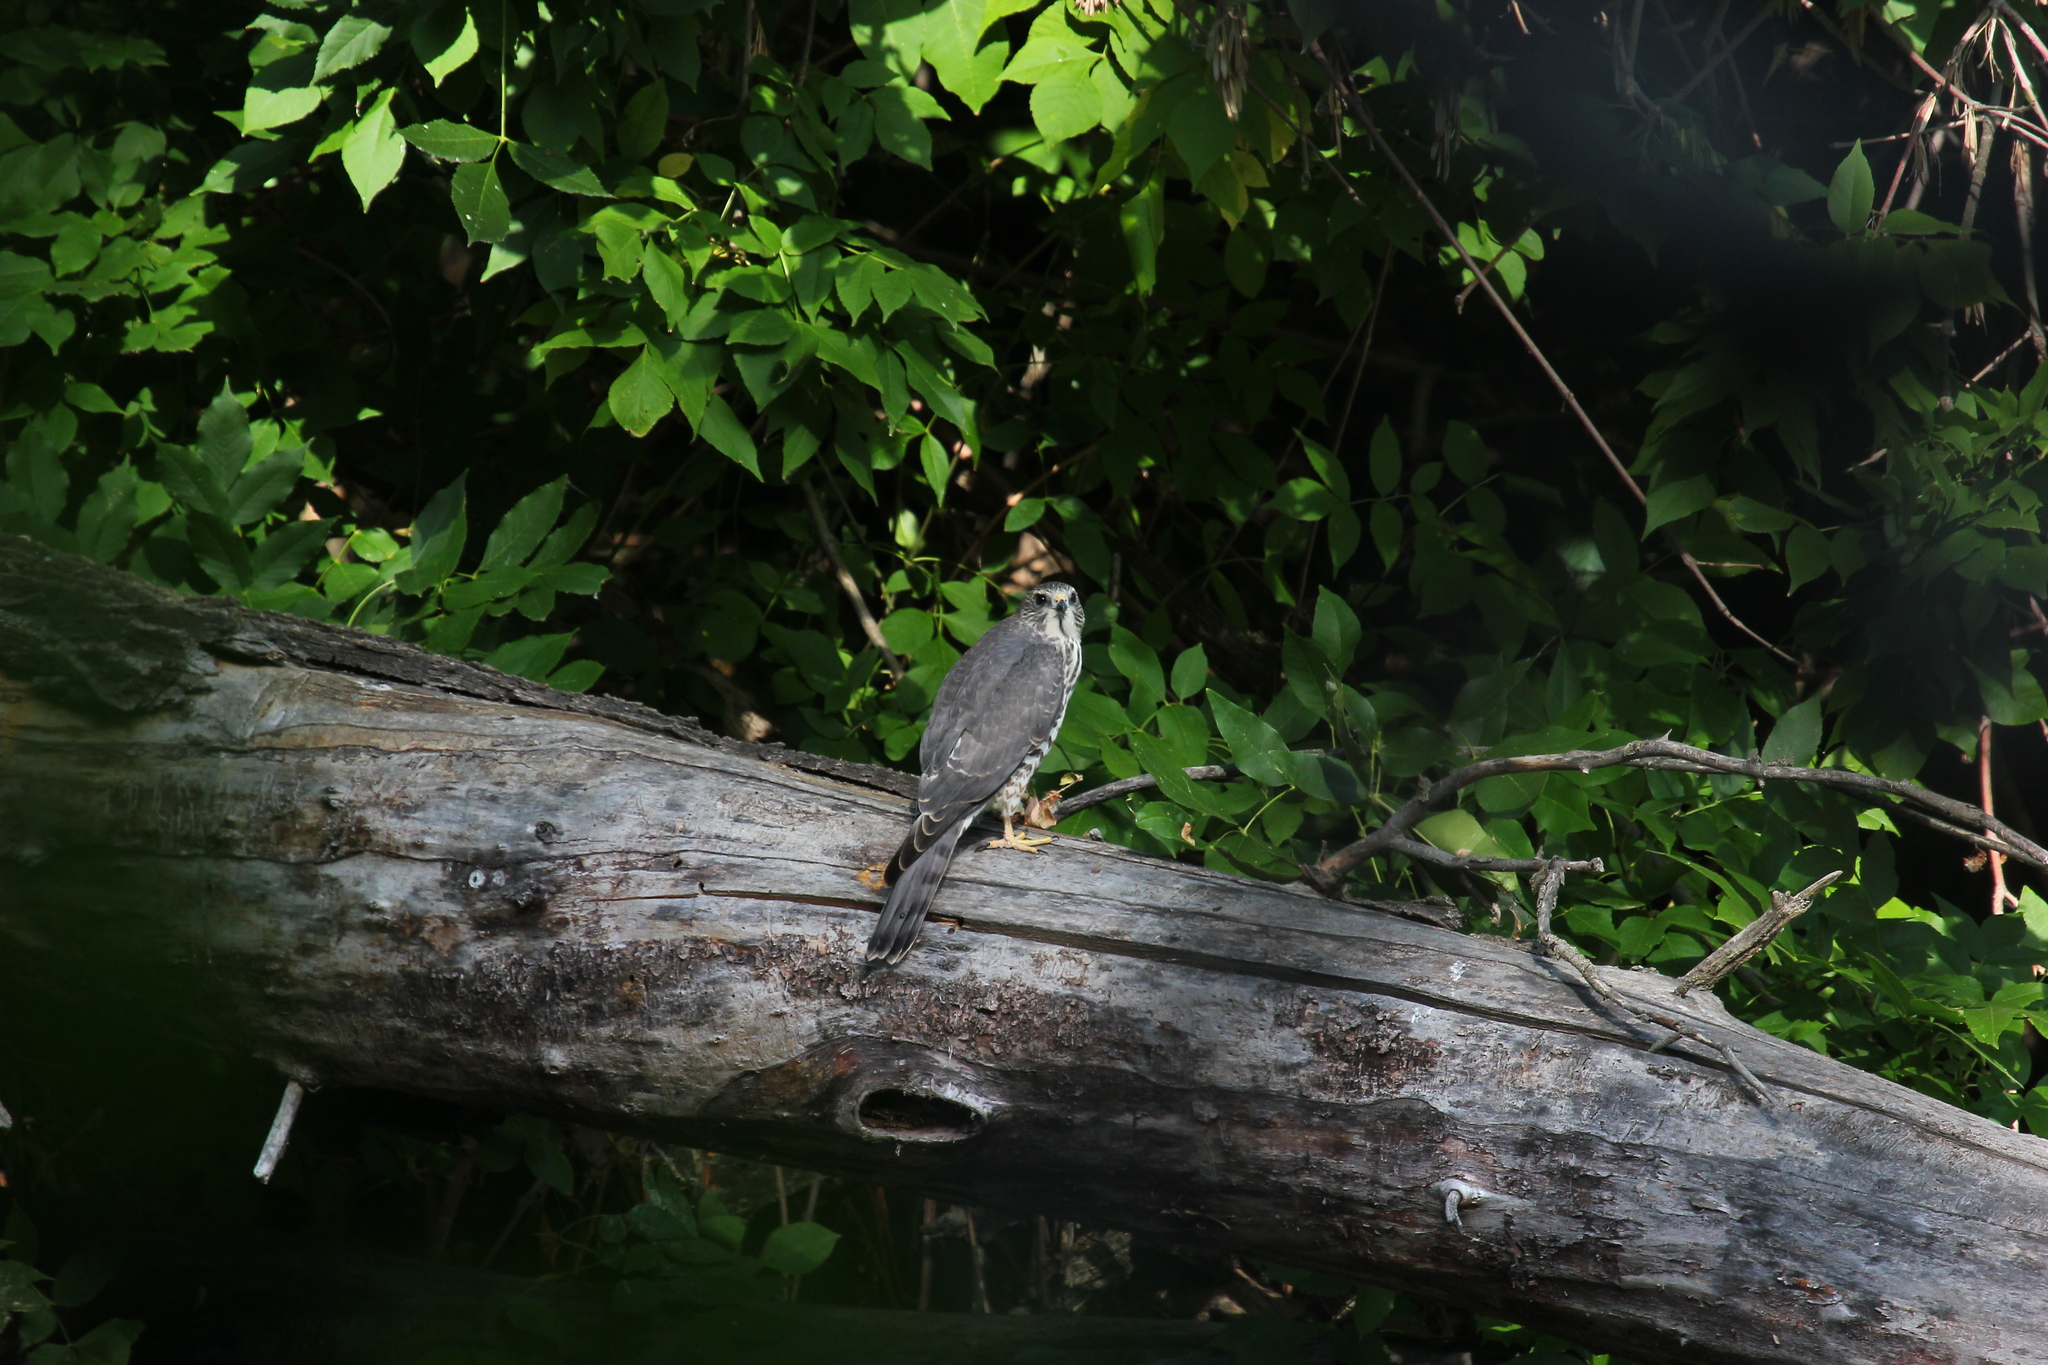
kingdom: Animalia
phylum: Chordata
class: Aves
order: Accipitriformes
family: Accipitridae
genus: Accipiter
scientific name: Accipiter brevipes
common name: Levant sparrowhawk
